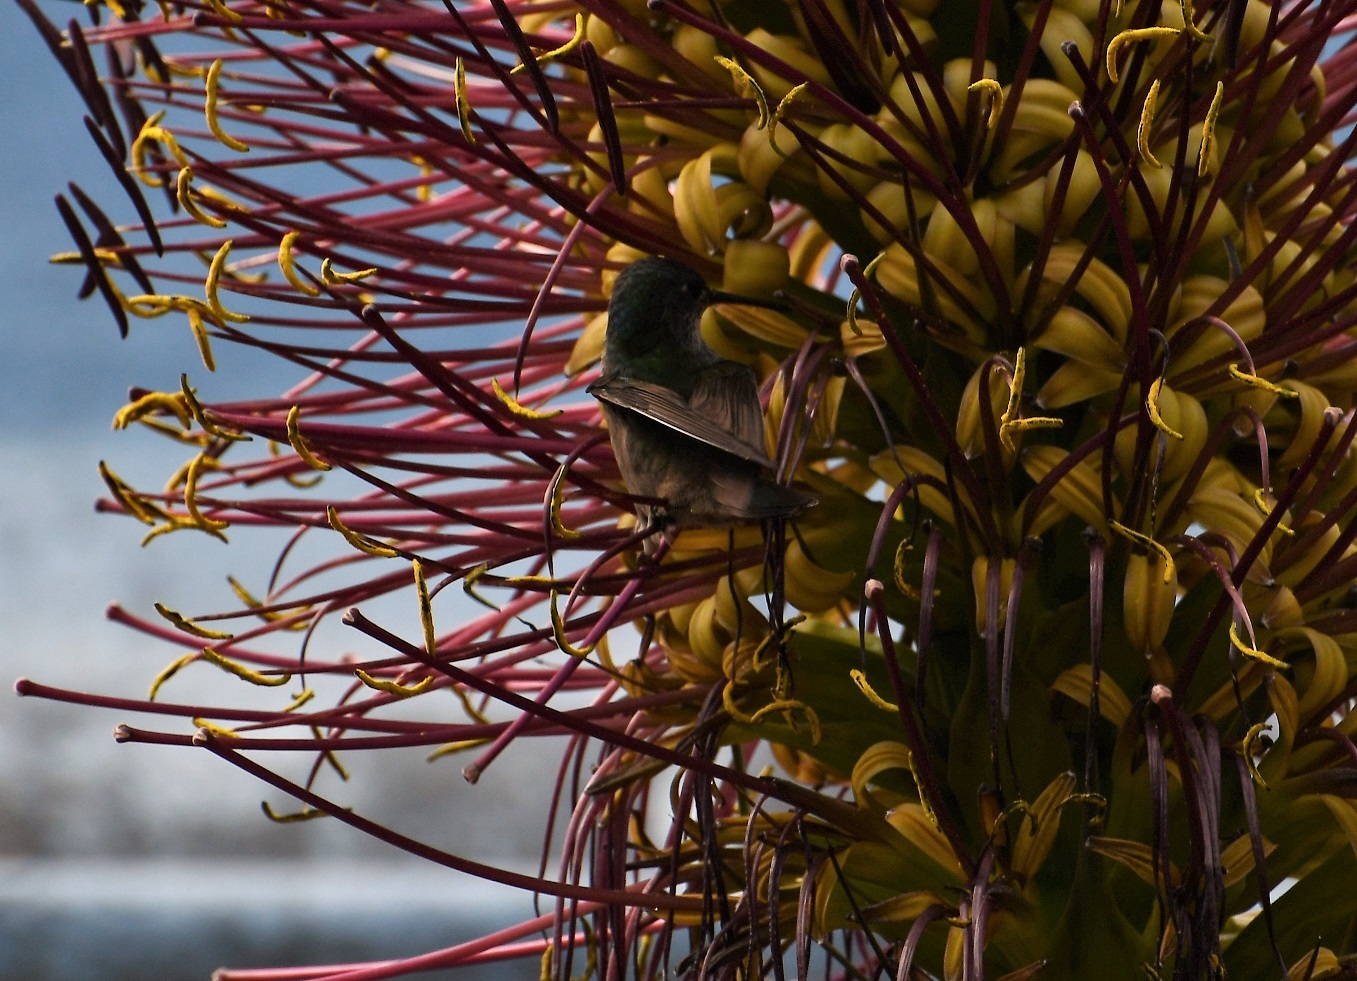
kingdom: Animalia
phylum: Chordata
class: Aves
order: Apodiformes
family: Trochilidae
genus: Chlorestes
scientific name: Chlorestes candida
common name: White-bellied emerald
